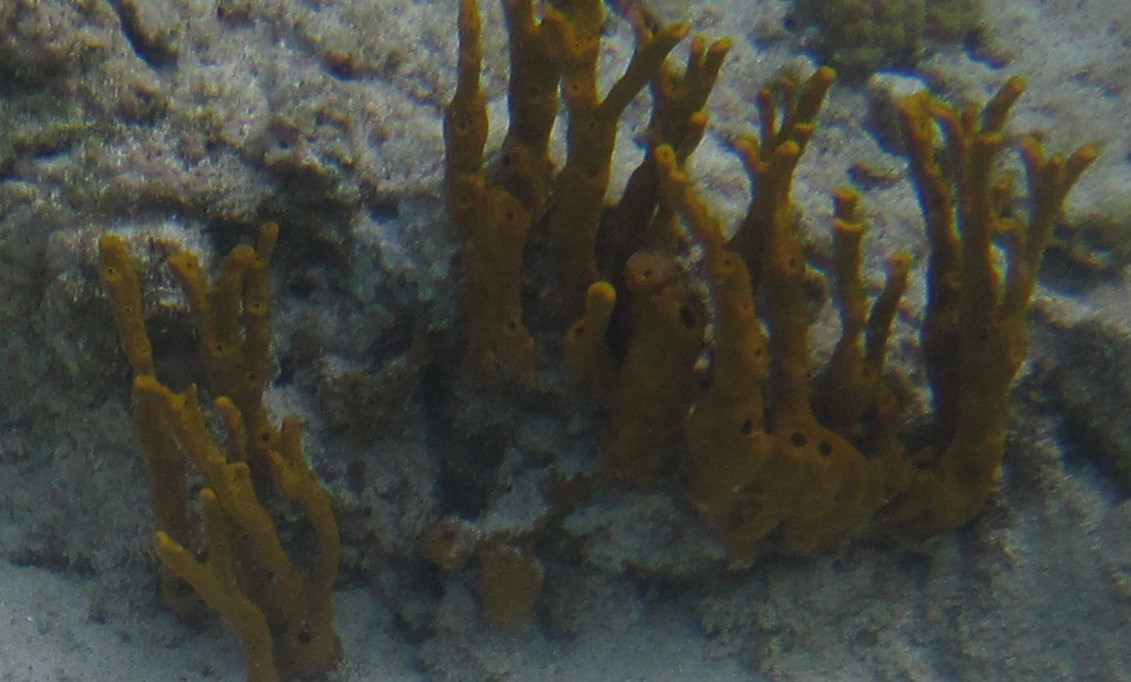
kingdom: Animalia
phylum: Porifera
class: Demospongiae
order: Verongiida
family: Aplysinidae
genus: Aplysina
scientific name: Aplysina fulva
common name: Scattered pore rope sponge
